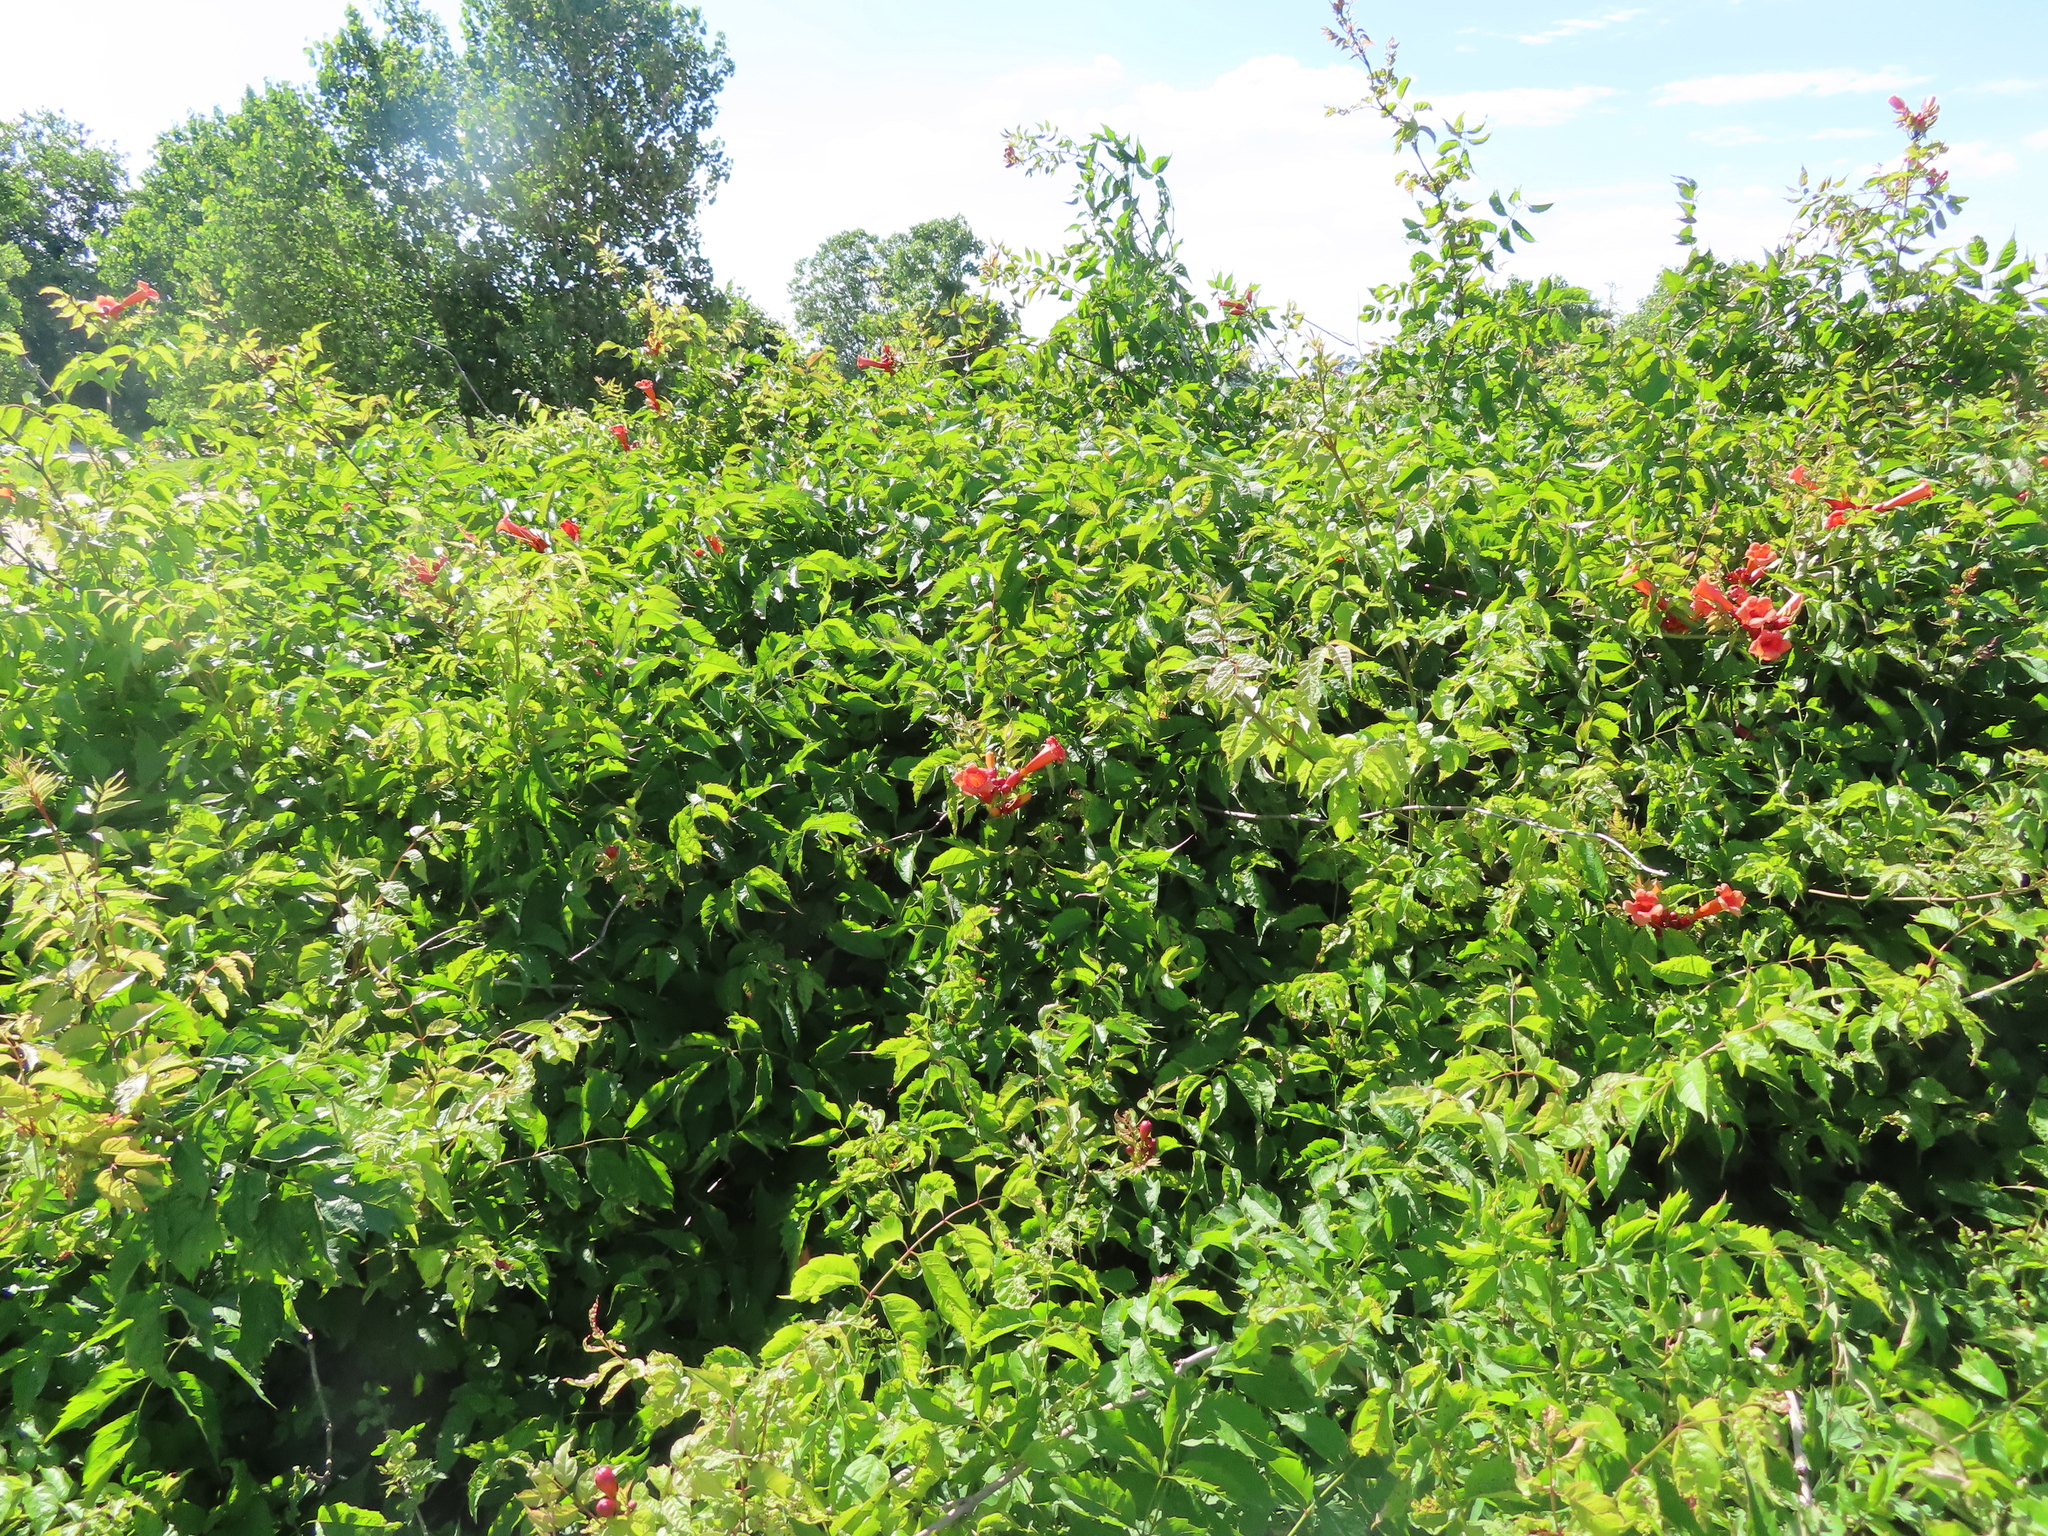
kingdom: Plantae
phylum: Tracheophyta
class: Magnoliopsida
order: Lamiales
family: Bignoniaceae
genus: Campsis
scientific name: Campsis radicans
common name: Trumpet-creeper
